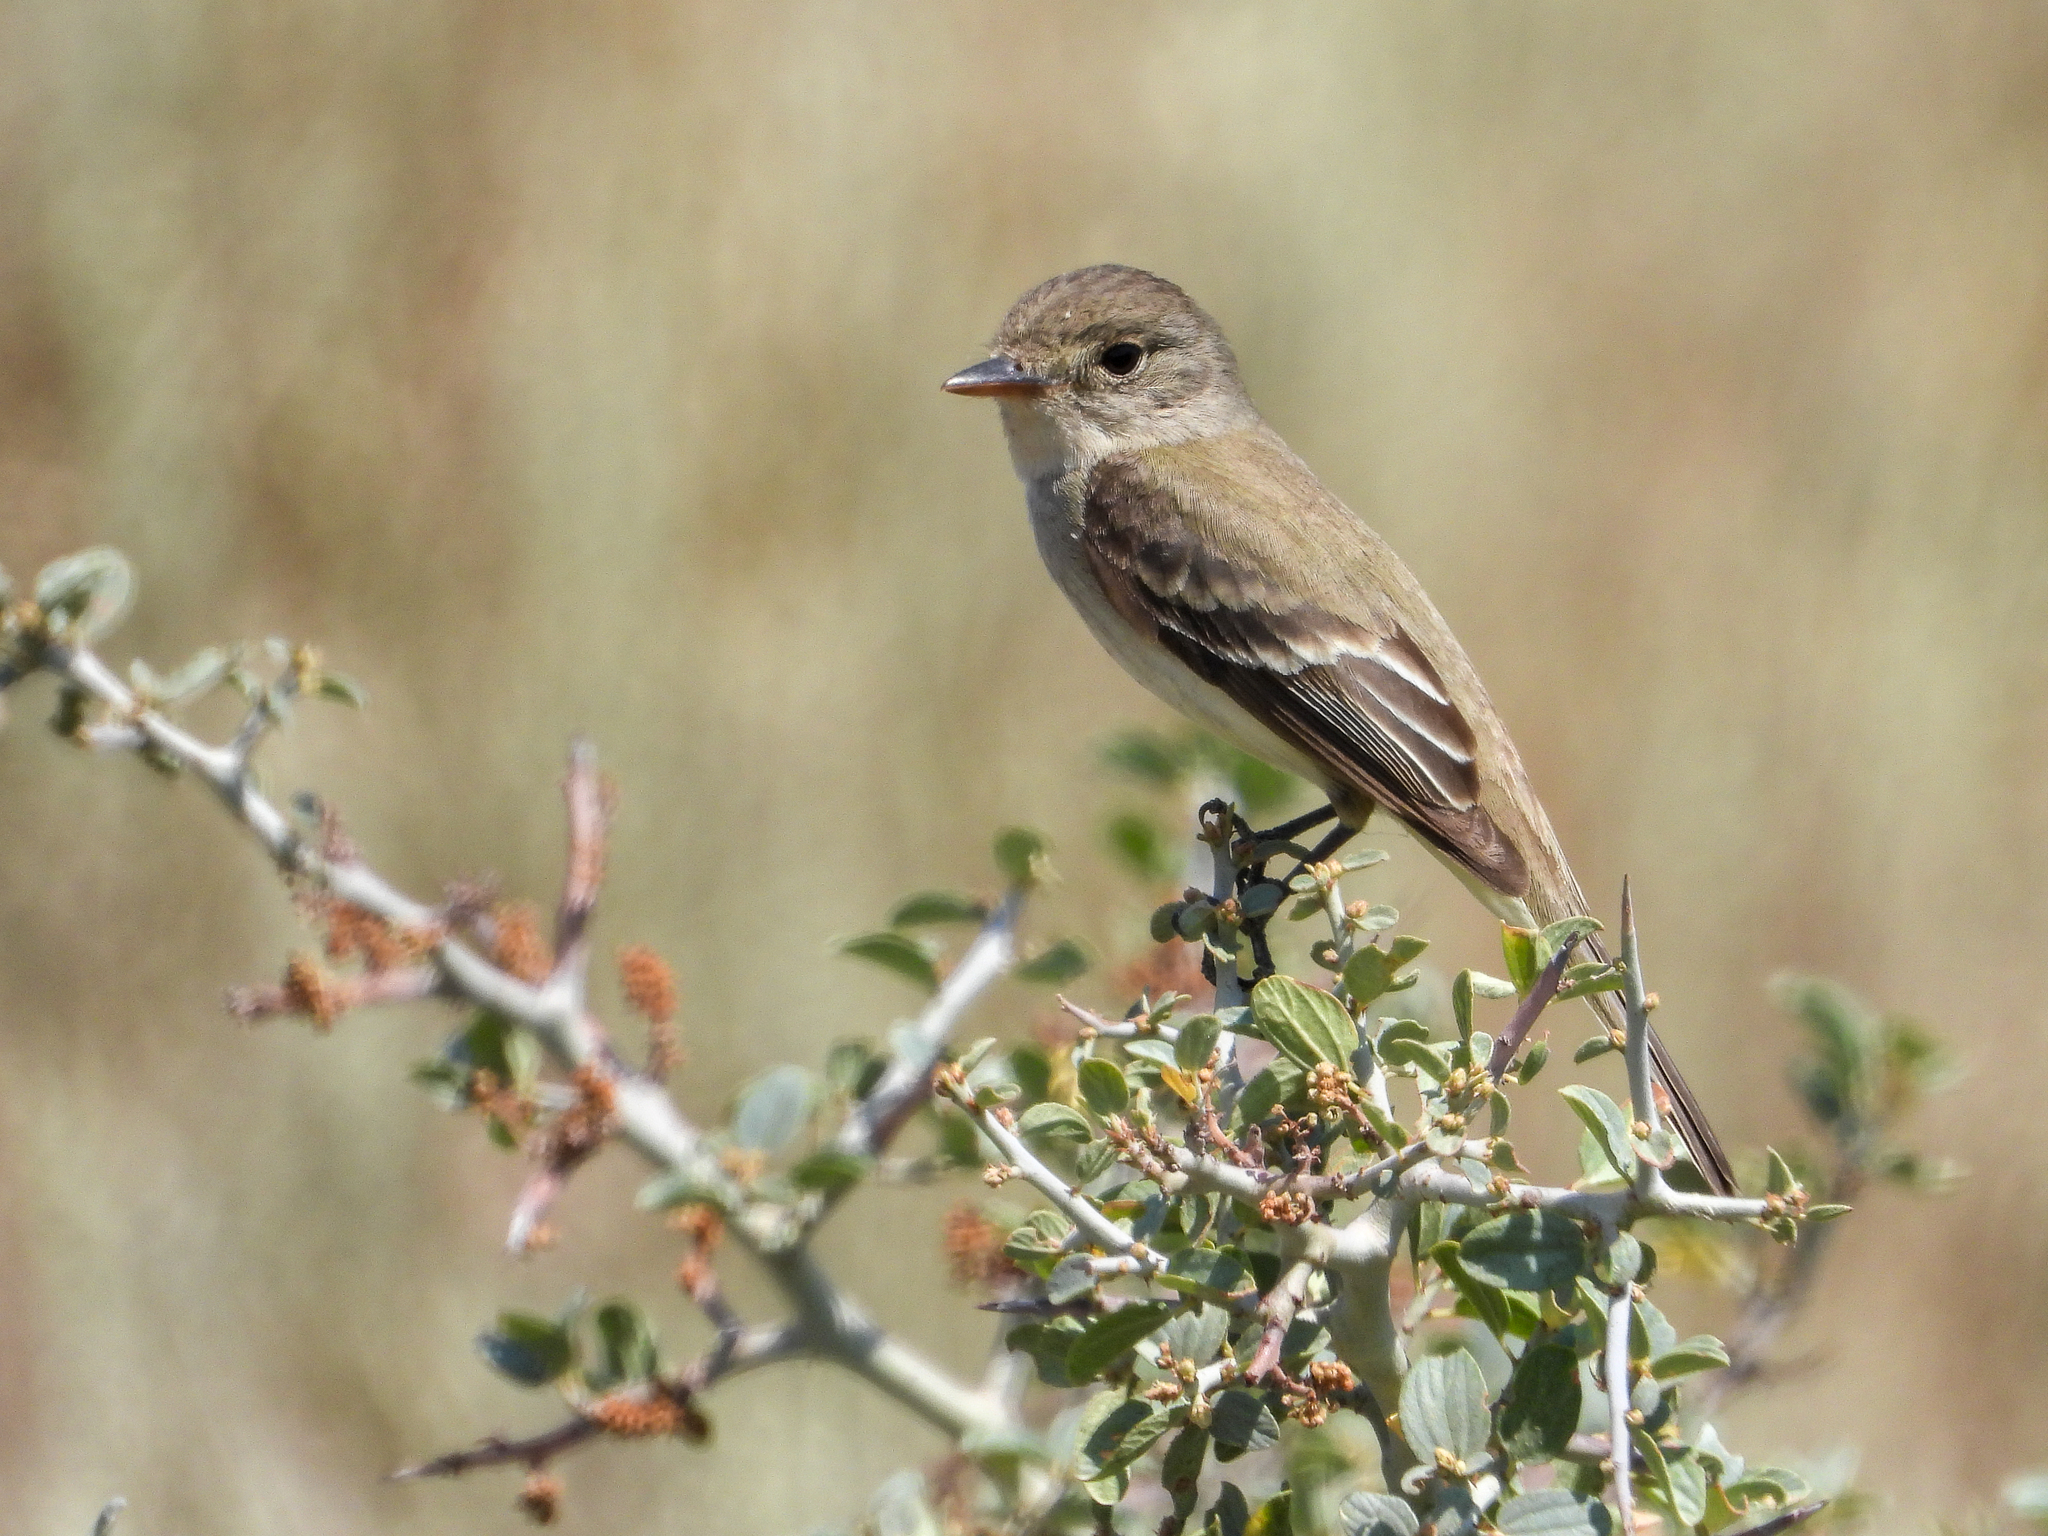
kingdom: Animalia
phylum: Chordata
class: Aves
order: Passeriformes
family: Tyrannidae
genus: Empidonax
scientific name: Empidonax traillii
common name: Willow flycatcher
